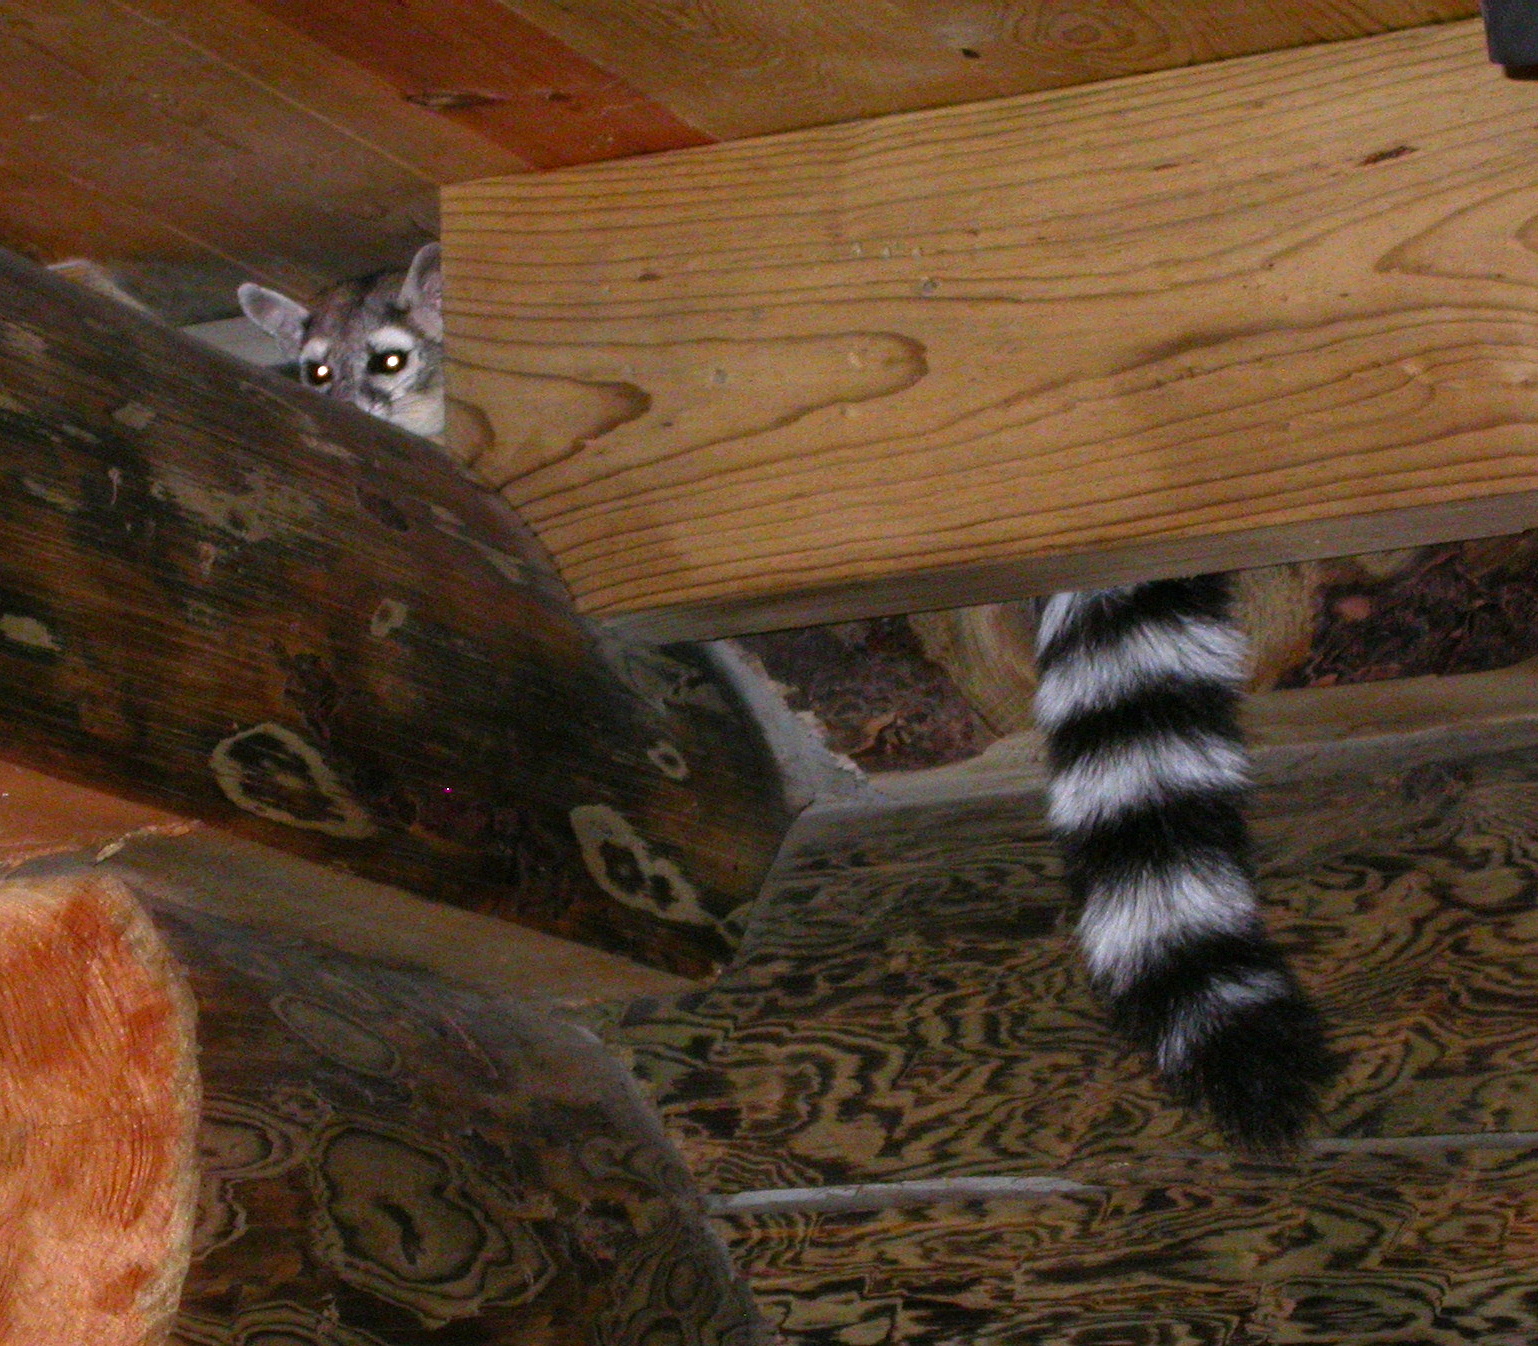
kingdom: Animalia
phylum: Chordata
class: Mammalia
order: Carnivora
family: Procyonidae
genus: Bassariscus
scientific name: Bassariscus astutus
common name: Ringtail
